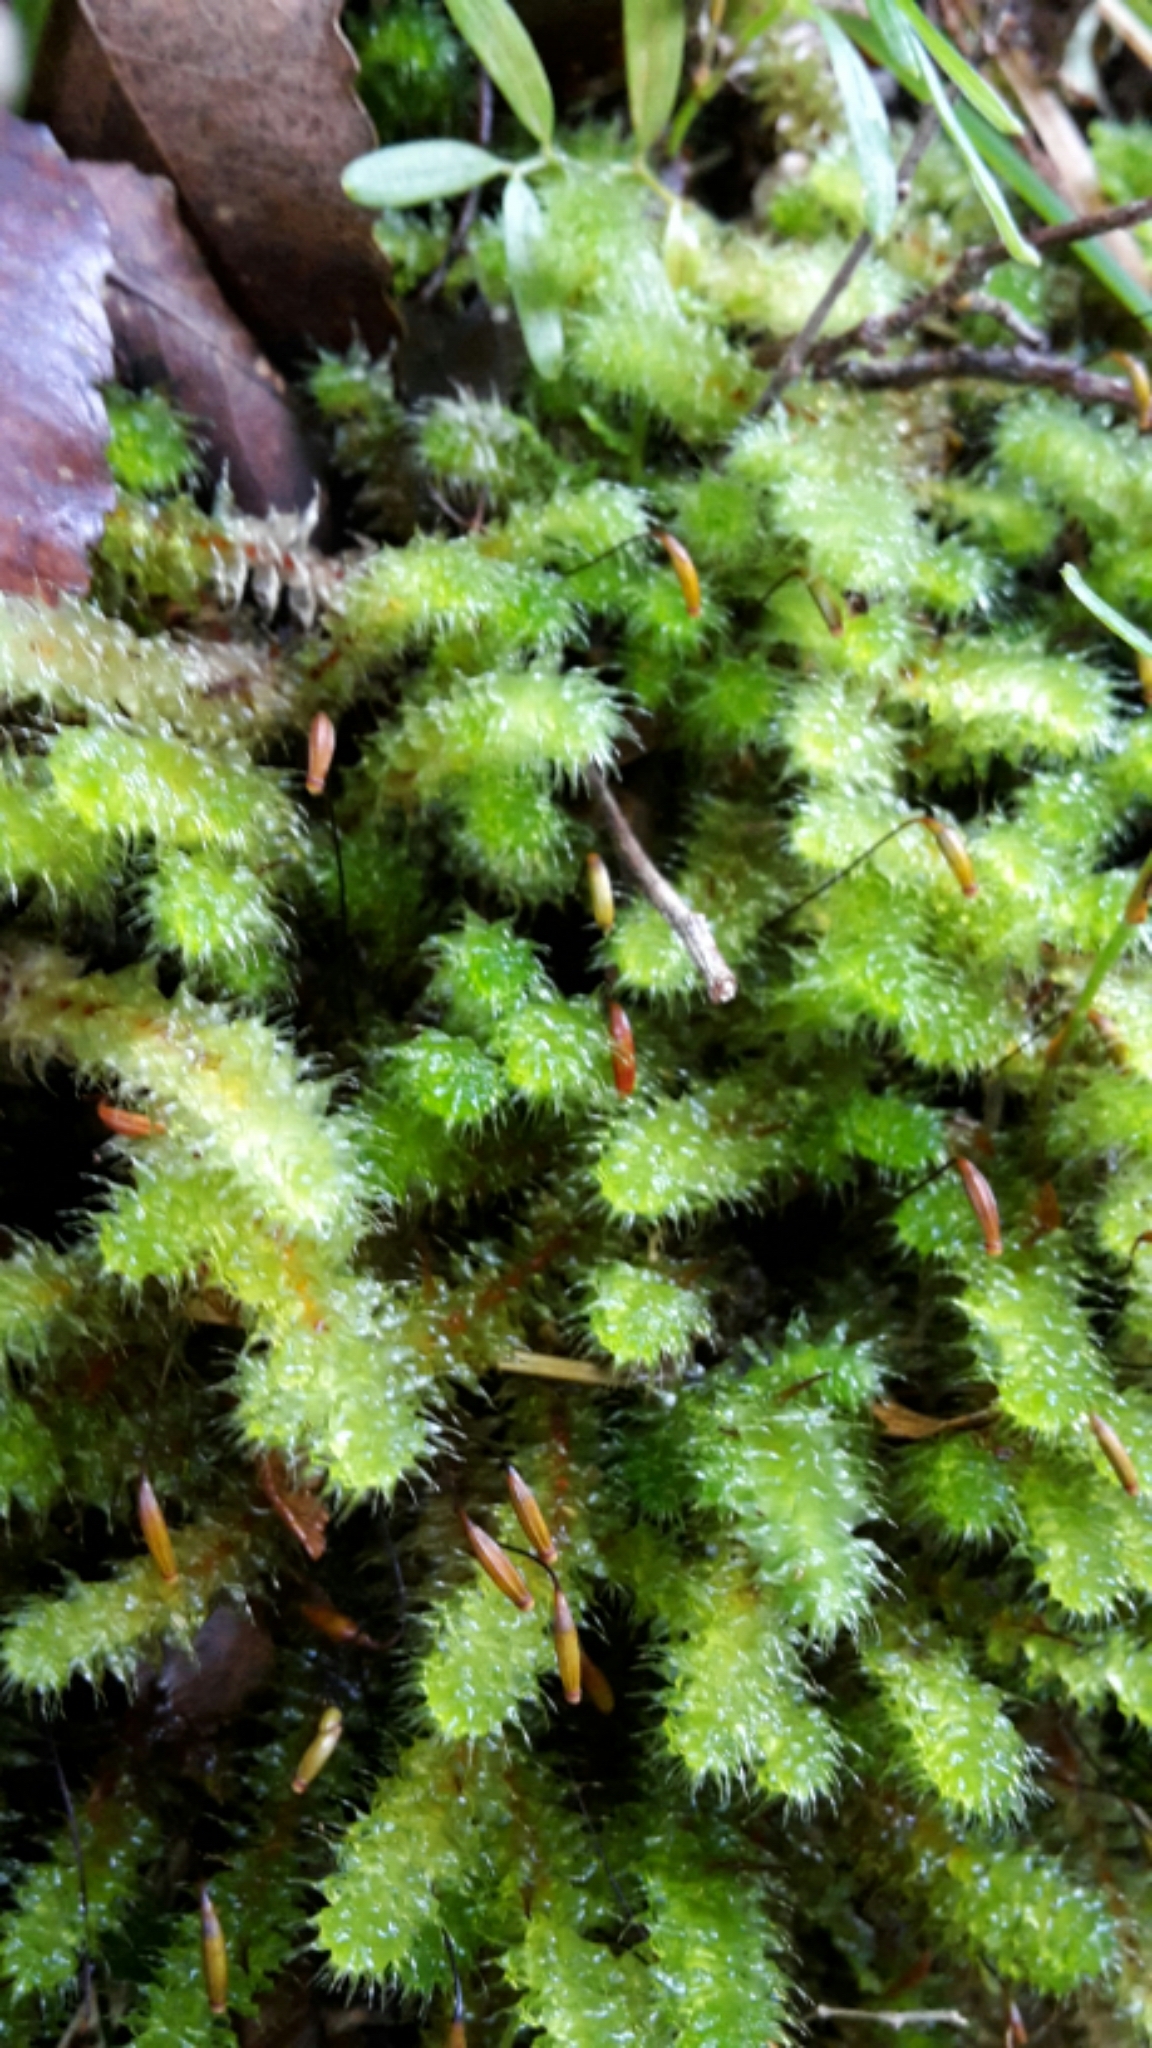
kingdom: Plantae
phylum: Bryophyta
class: Bryopsida
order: Ptychomniales
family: Ptychomniaceae
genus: Ptychomnion
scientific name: Ptychomnion aciculare
